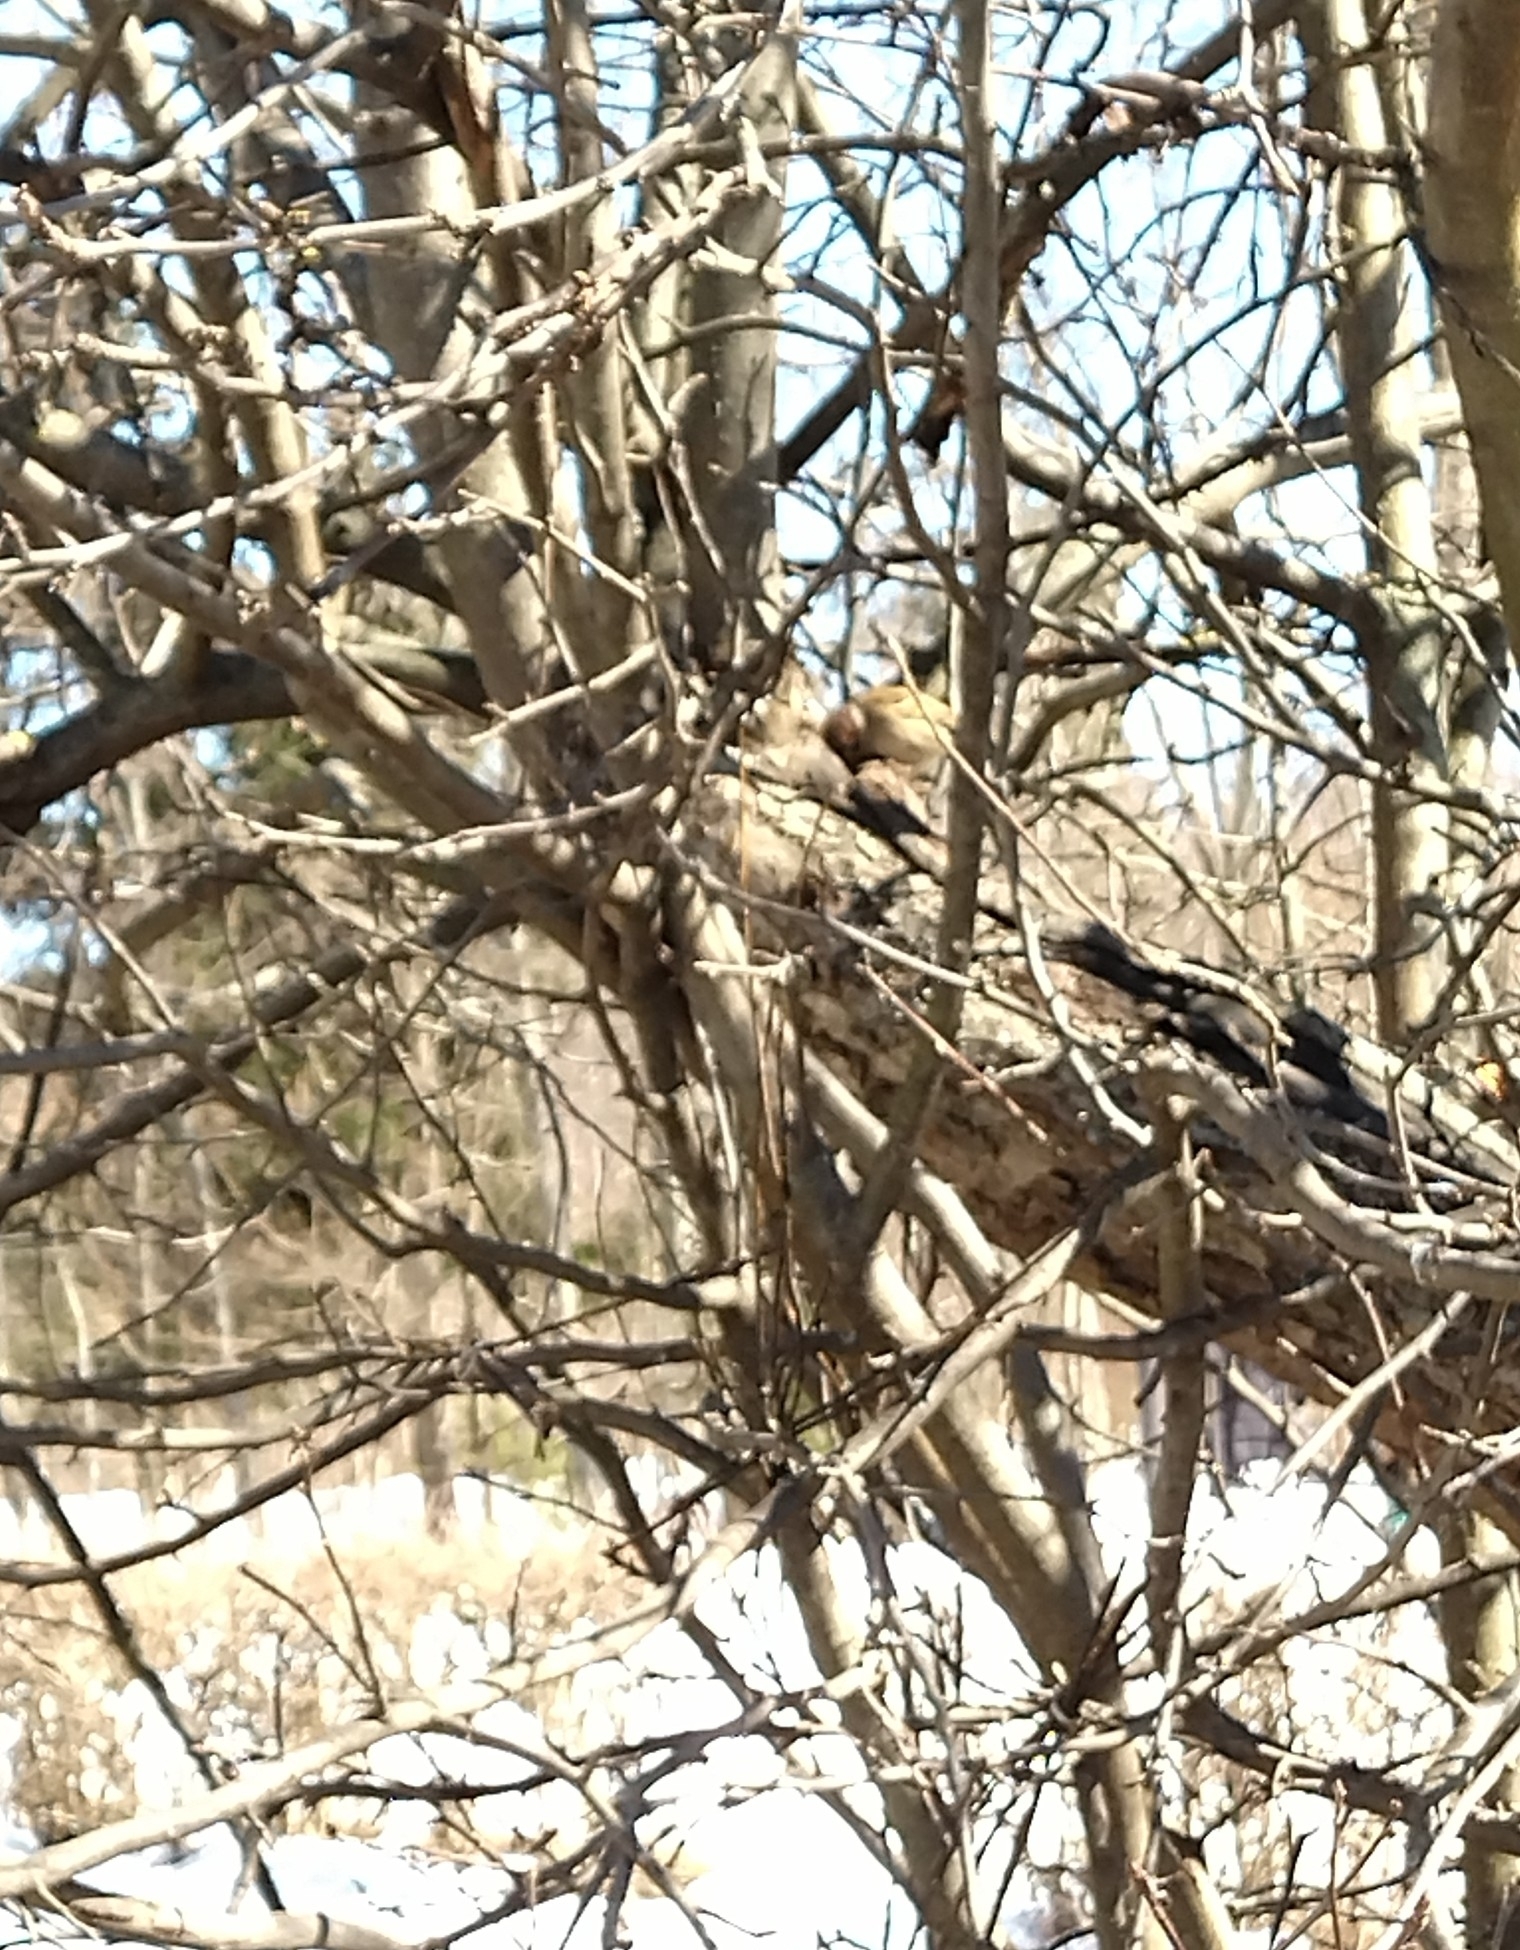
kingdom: Animalia
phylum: Chordata
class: Aves
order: Passeriformes
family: Passeridae
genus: Passer
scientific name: Passer montanus
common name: Eurasian tree sparrow
